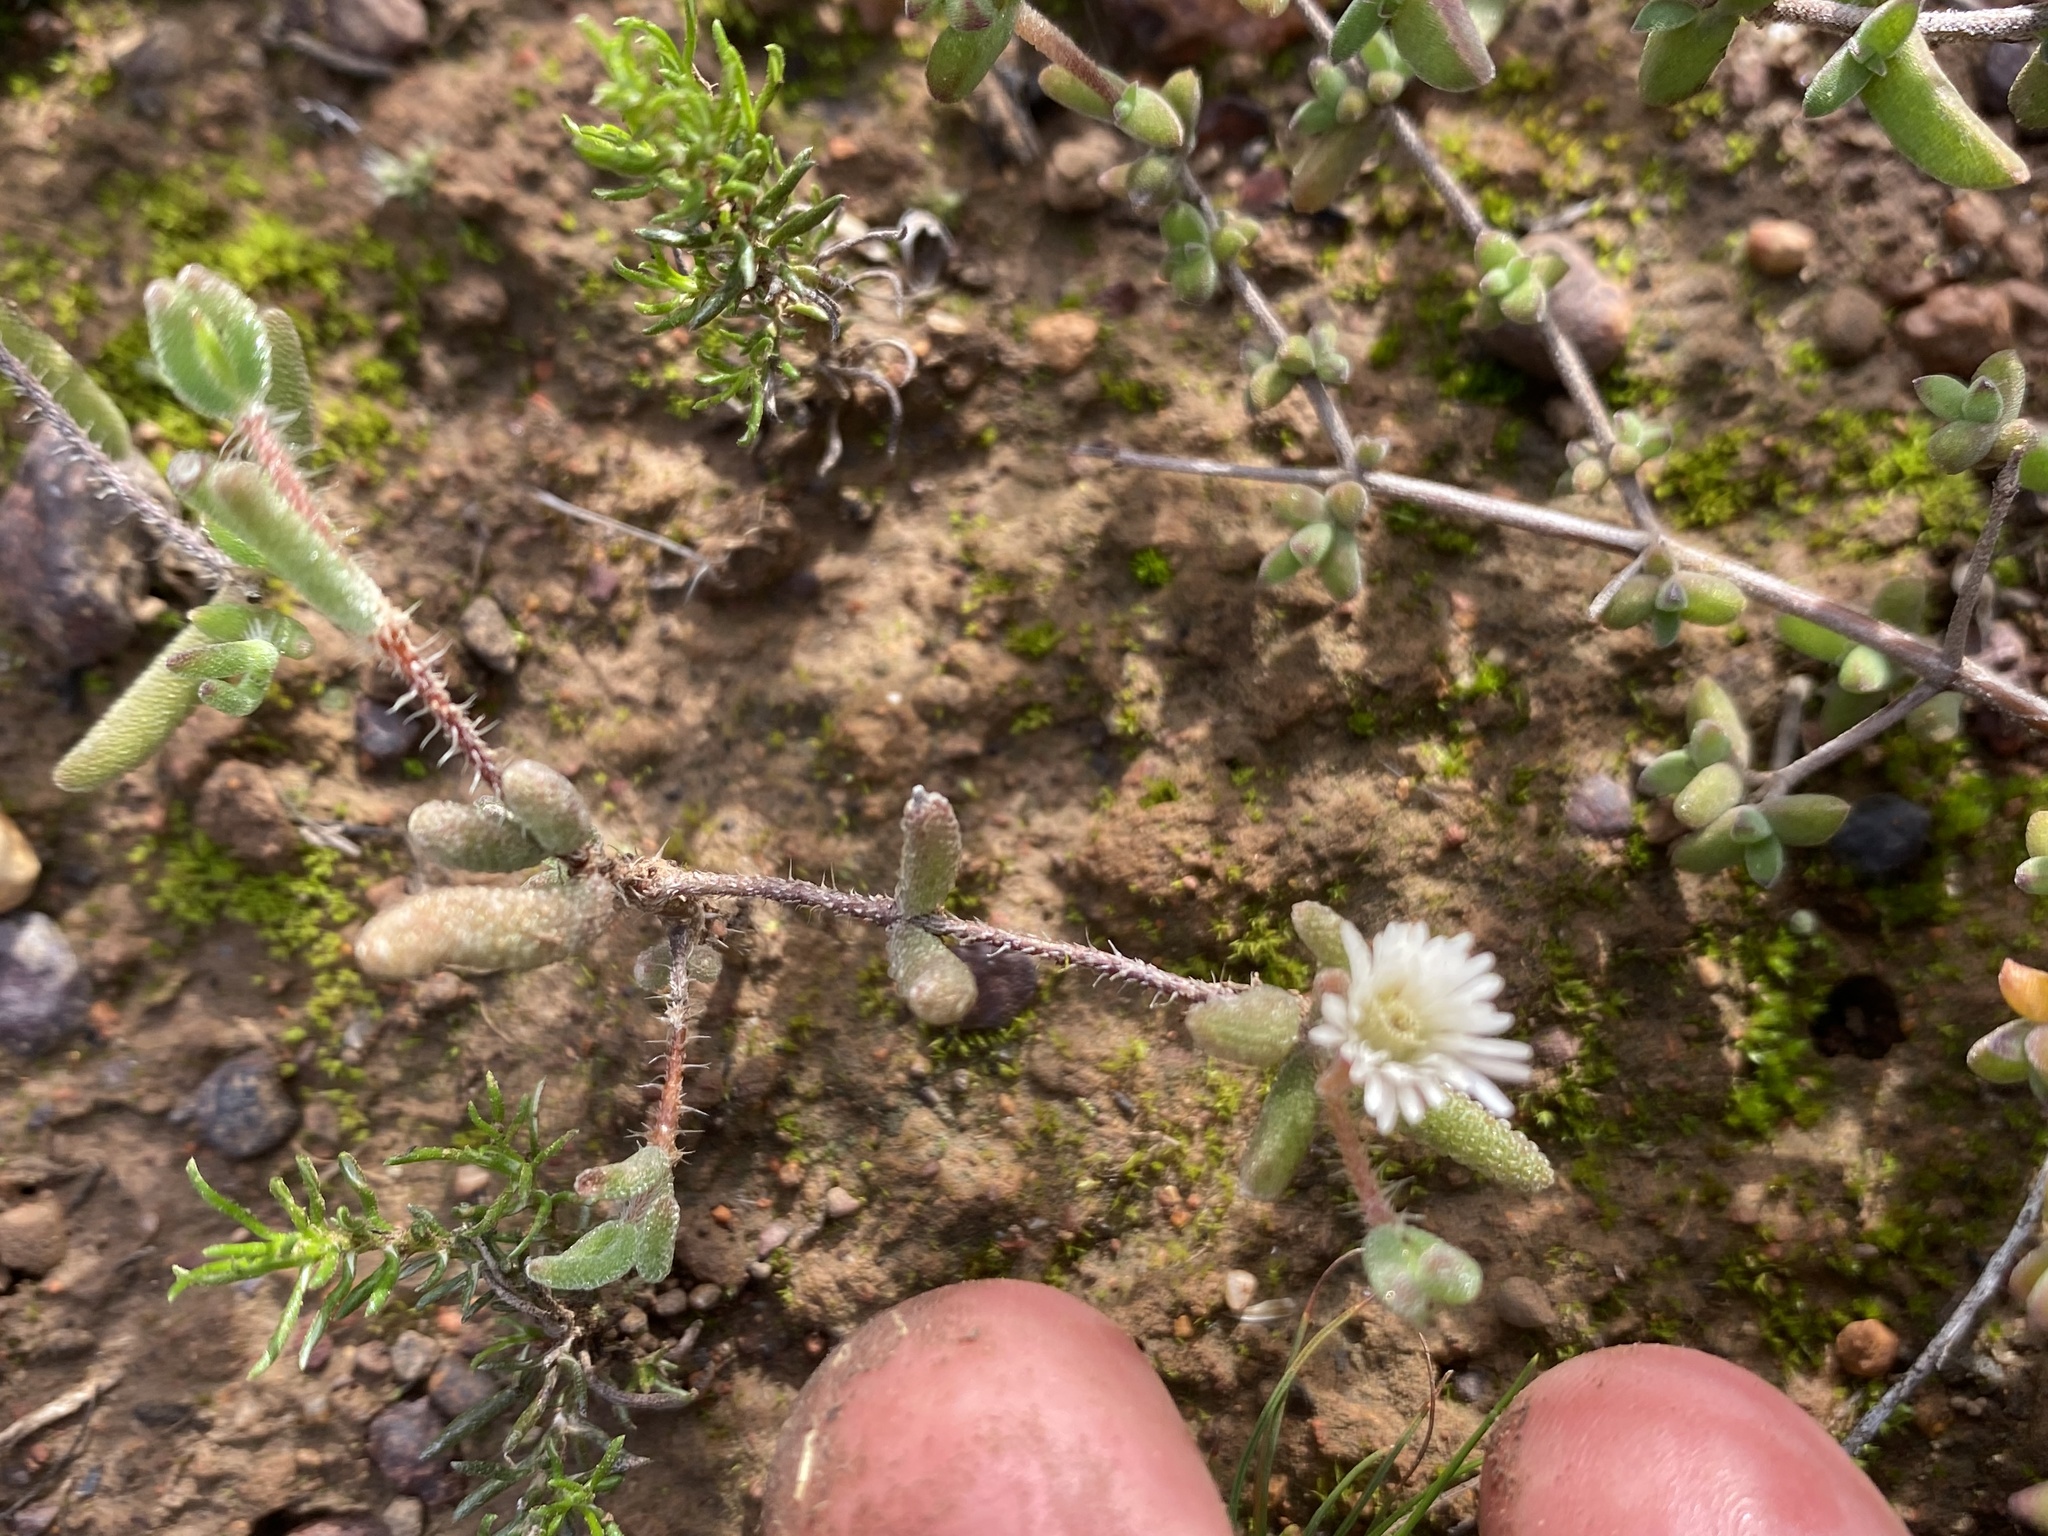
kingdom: Plantae
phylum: Tracheophyta
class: Magnoliopsida
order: Caryophyllales
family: Aizoaceae
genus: Drosanthemum
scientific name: Drosanthemum calycinum
